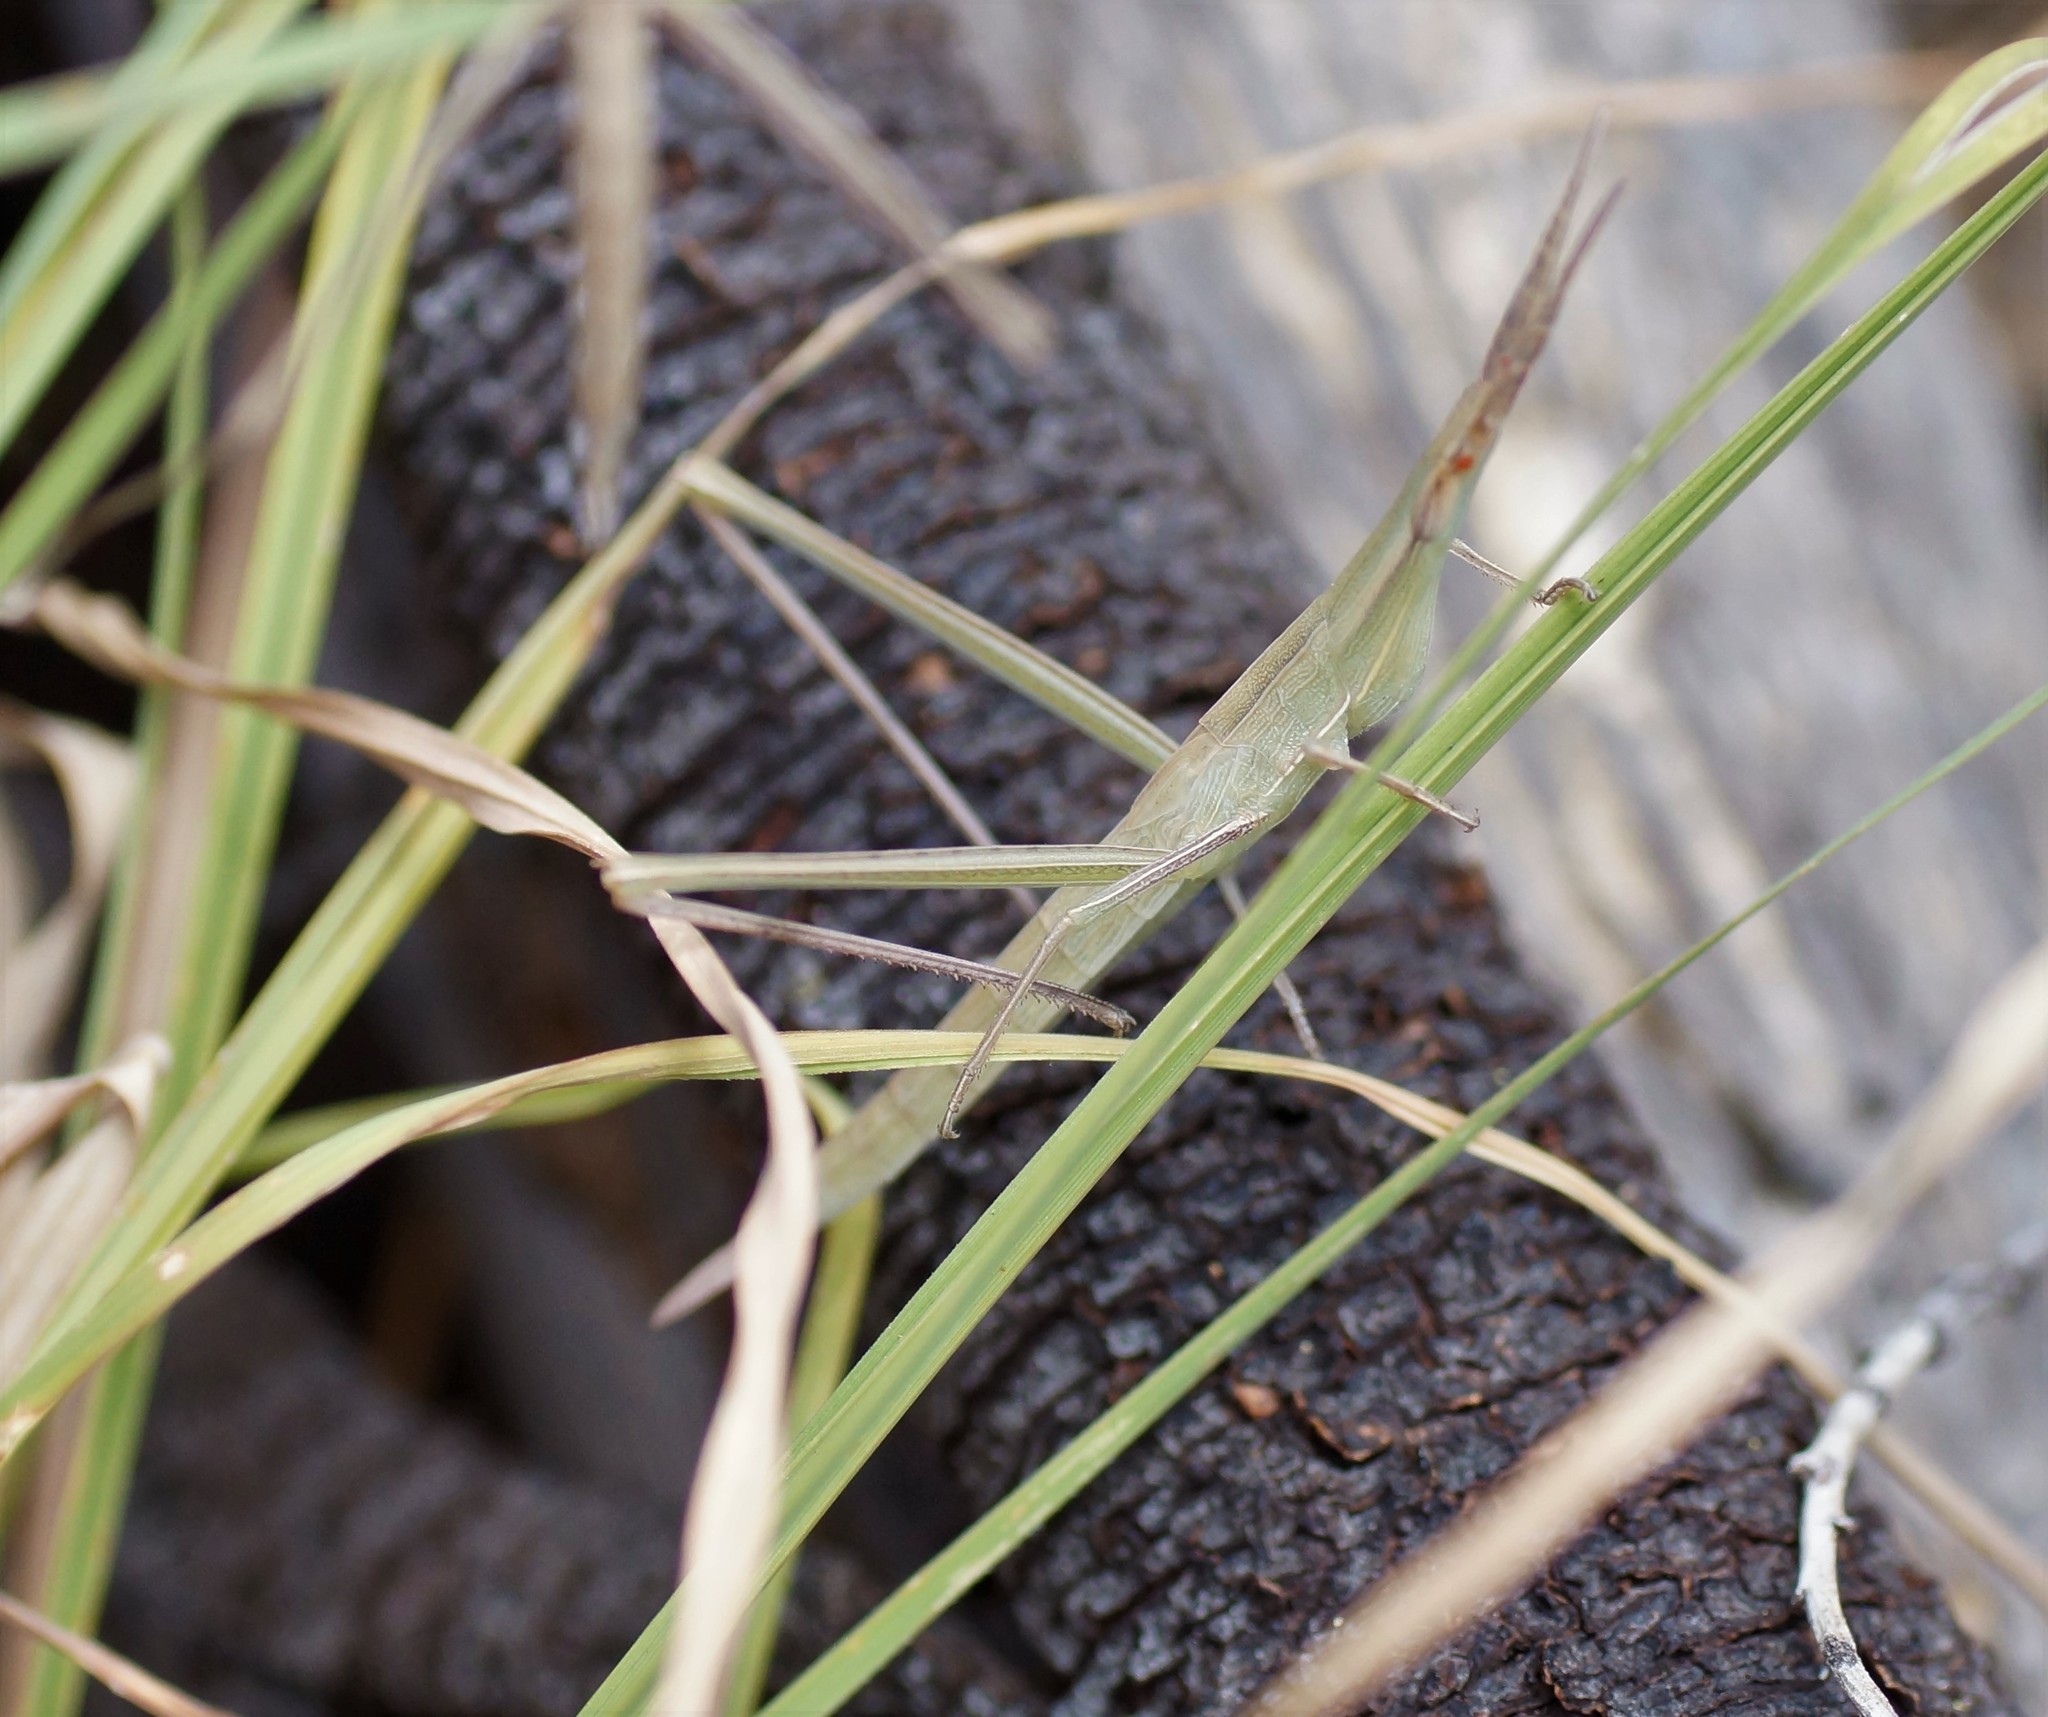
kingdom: Animalia
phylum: Arthropoda
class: Insecta
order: Orthoptera
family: Acrididae
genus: Acrida
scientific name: Acrida conica
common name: Giant green slantface
